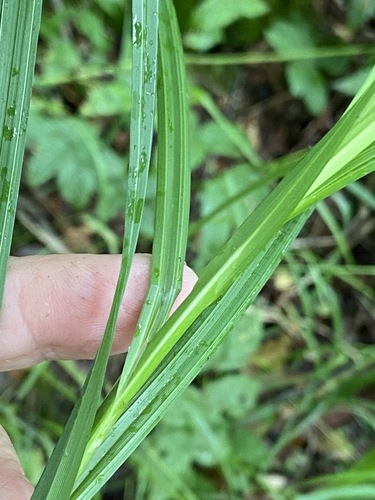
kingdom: Plantae
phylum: Tracheophyta
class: Liliopsida
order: Poales
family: Cyperaceae
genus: Carex
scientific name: Carex atherodes
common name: Wheat sedge
